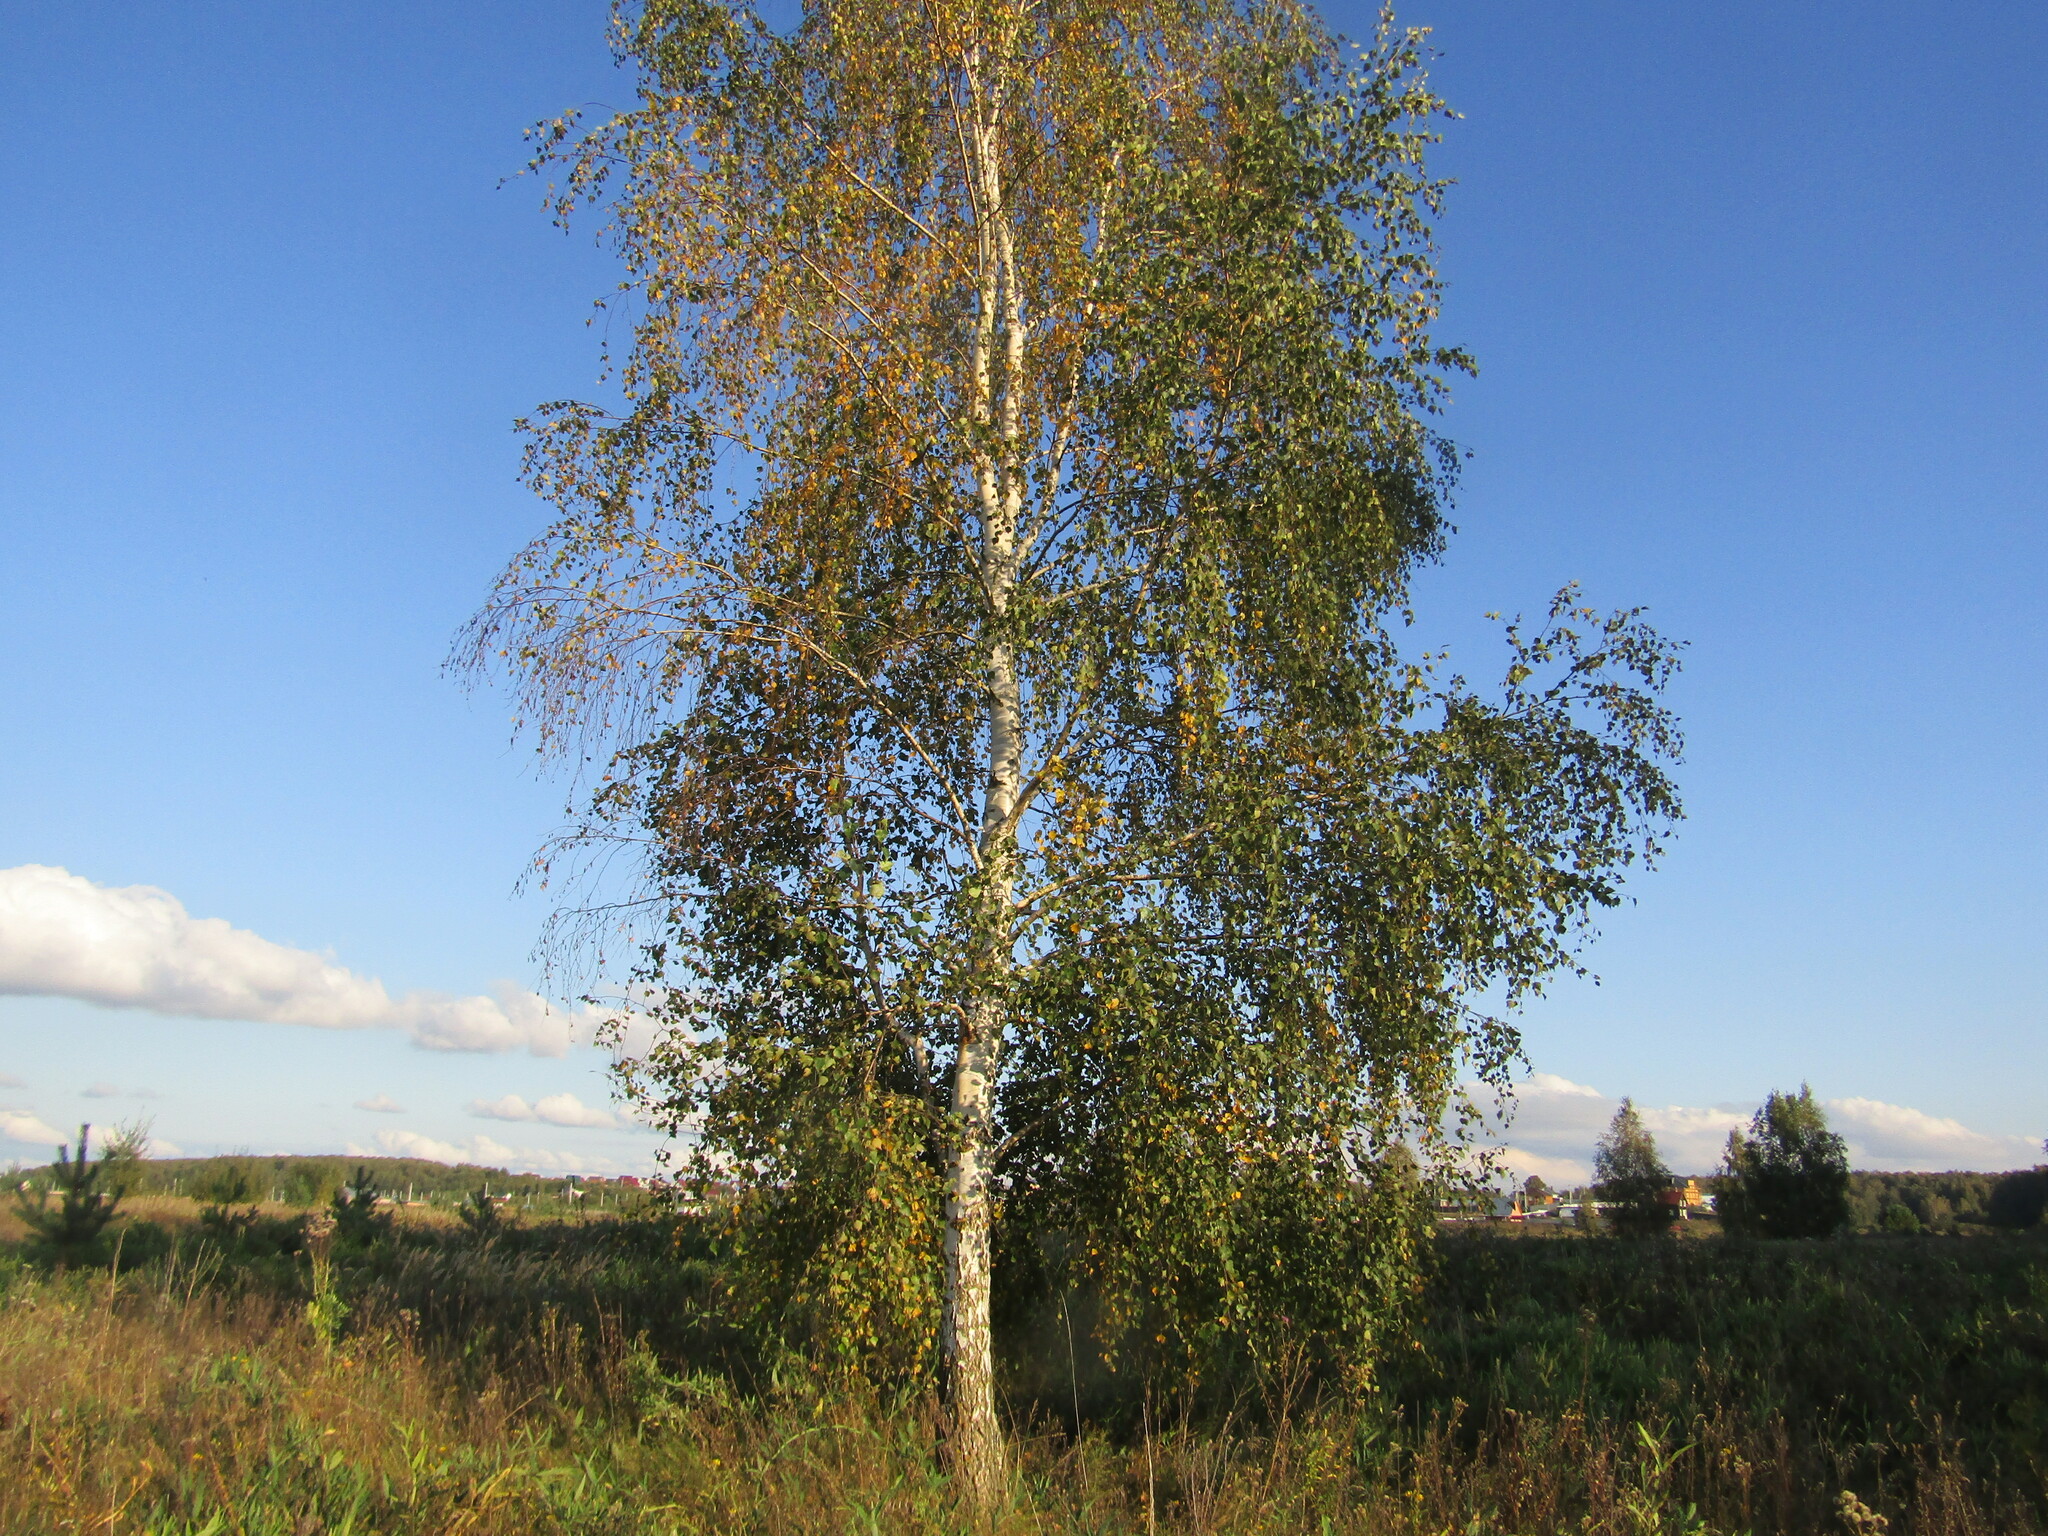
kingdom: Plantae
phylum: Tracheophyta
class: Magnoliopsida
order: Fagales
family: Betulaceae
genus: Betula
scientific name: Betula pendula
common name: Silver birch
